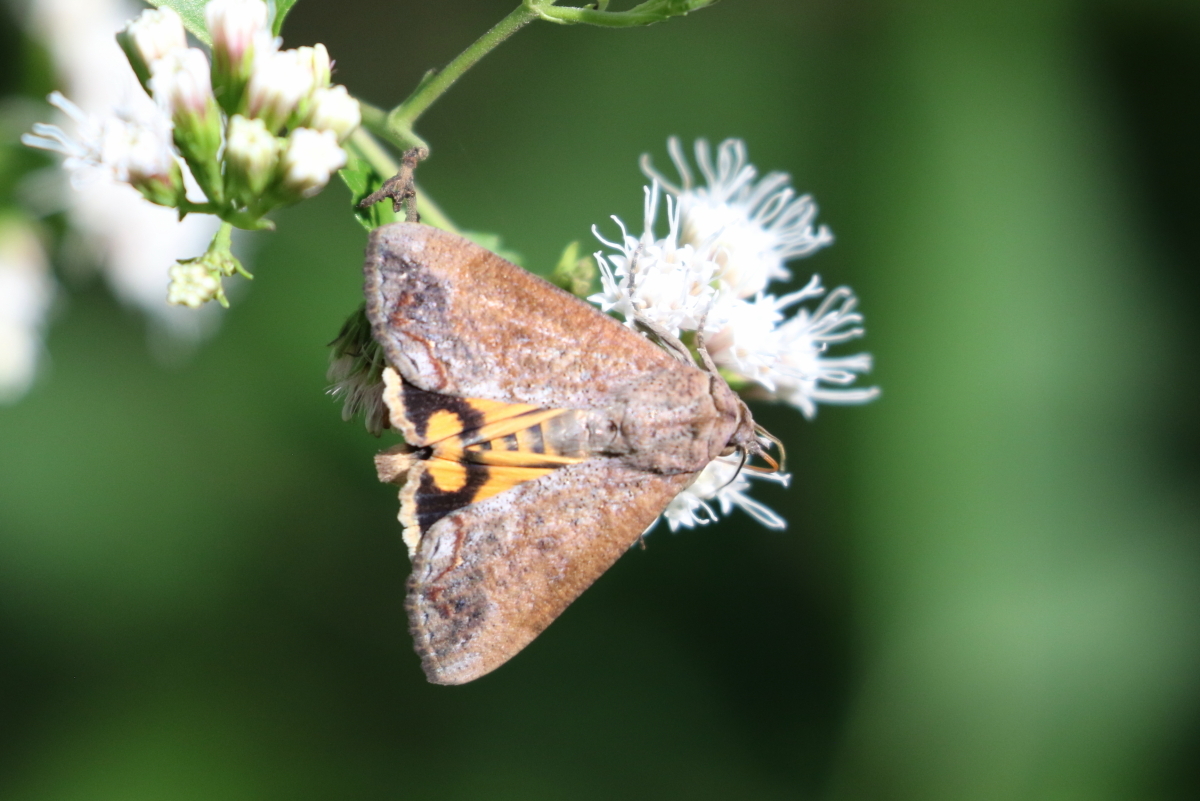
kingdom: Animalia
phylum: Arthropoda
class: Insecta
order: Lepidoptera
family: Erebidae
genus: Hypocala
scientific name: Hypocala andremona
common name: Hypocala moth
